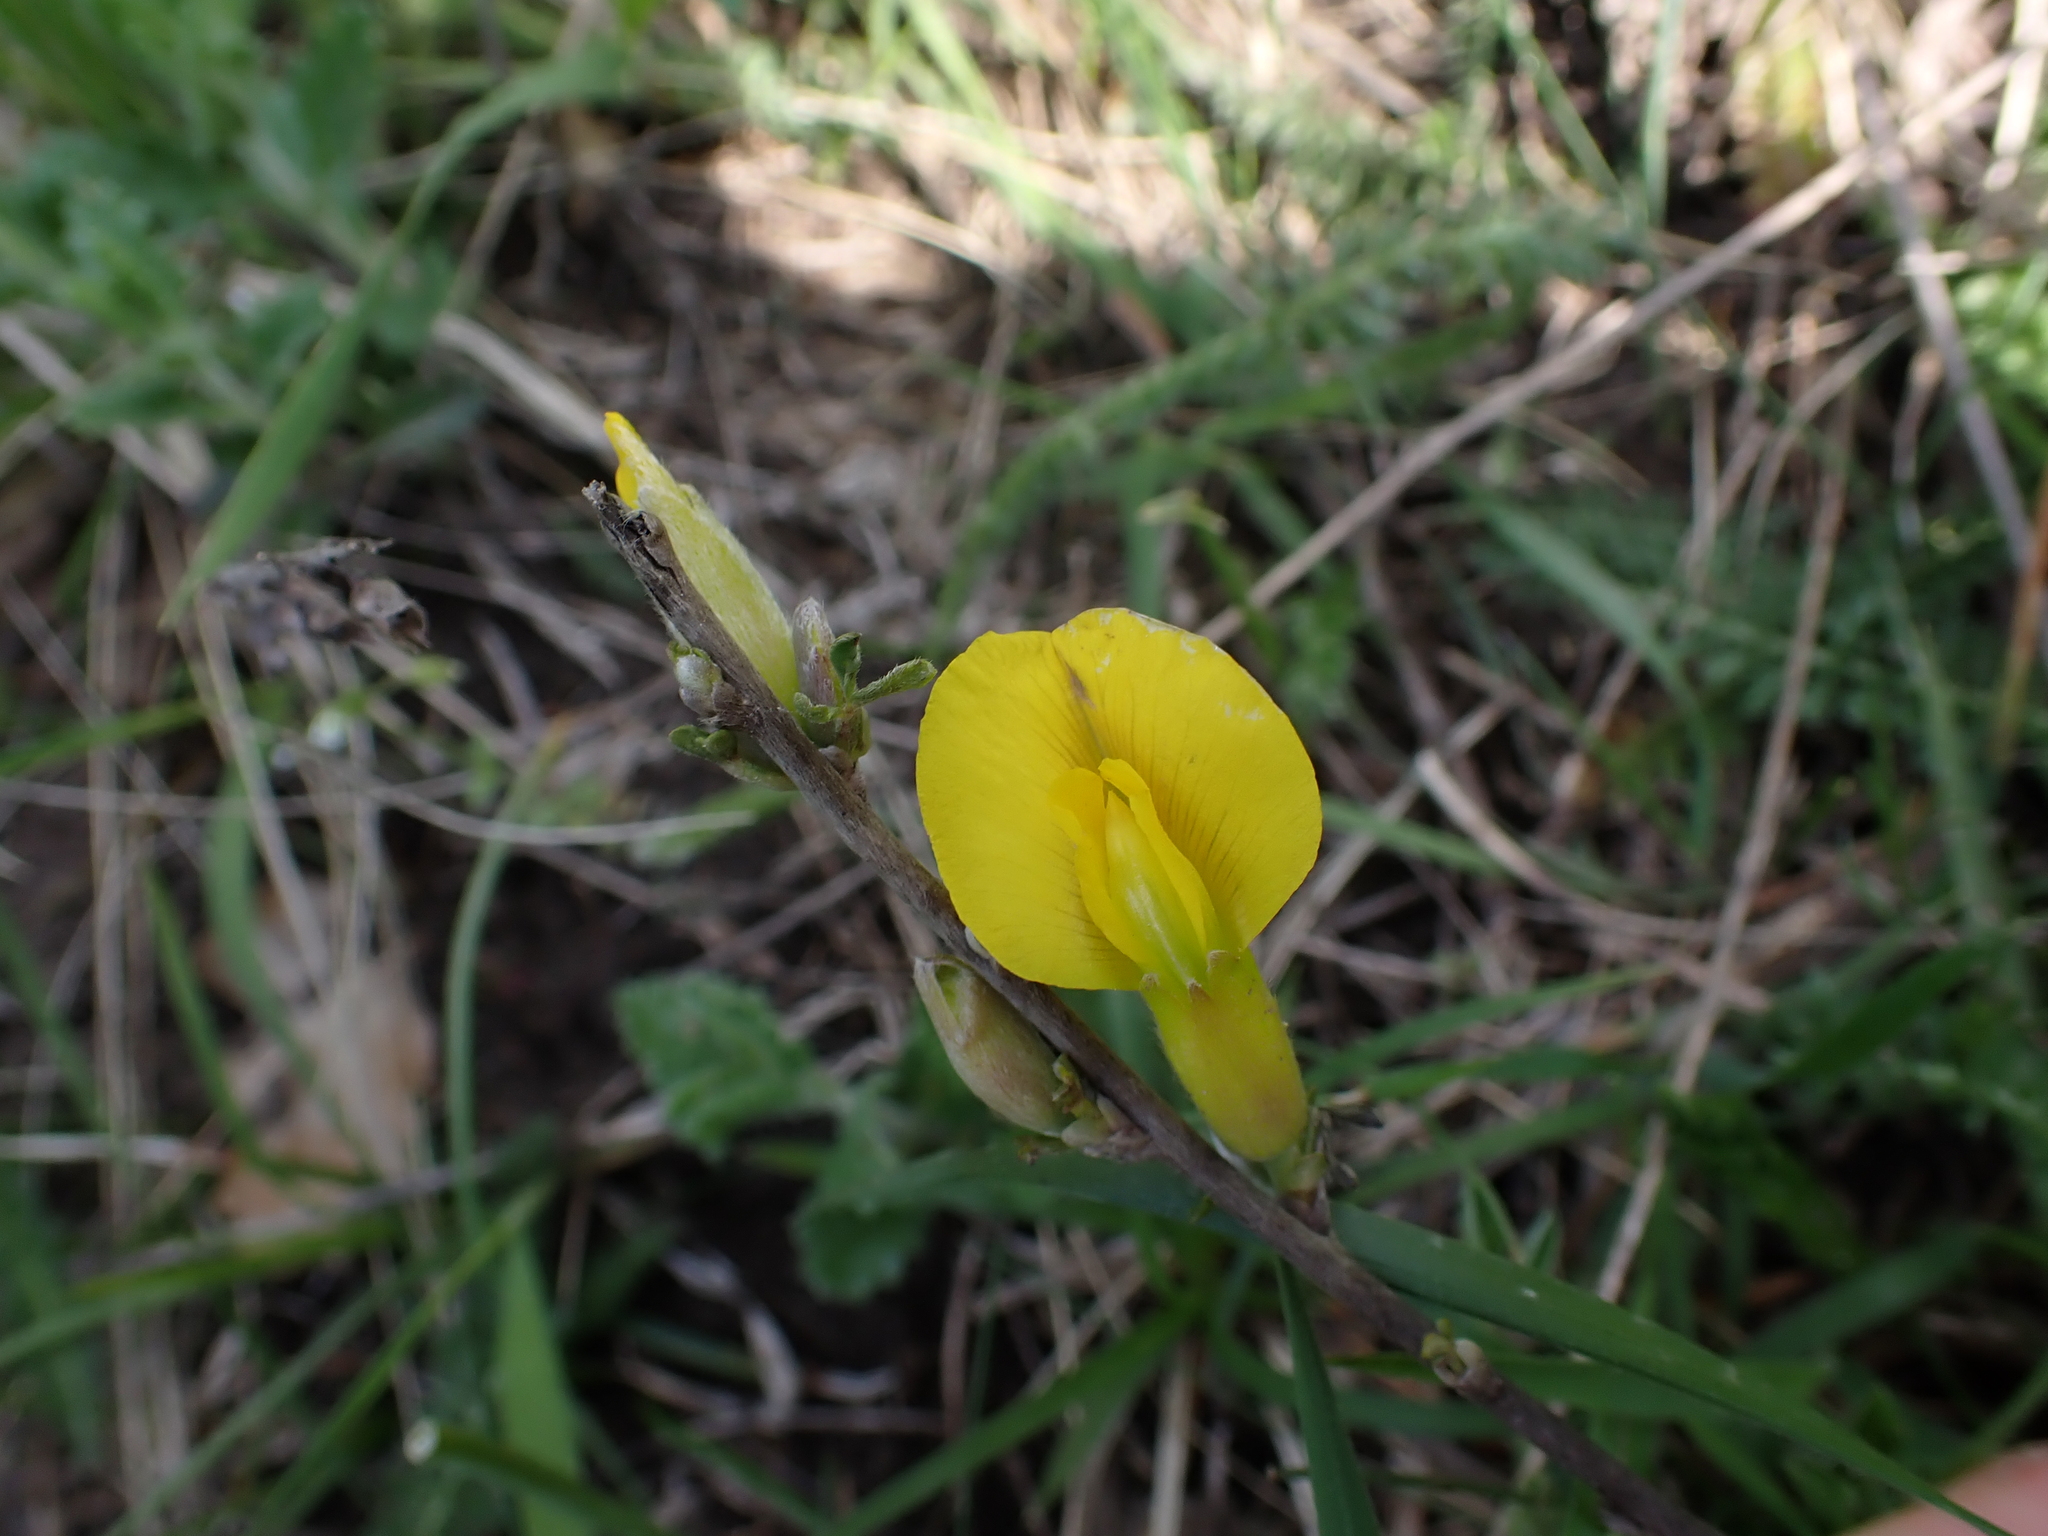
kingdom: Plantae
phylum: Tracheophyta
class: Magnoliopsida
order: Fabales
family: Fabaceae
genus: Chamaecytisus
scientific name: Chamaecytisus ratisbonensis
